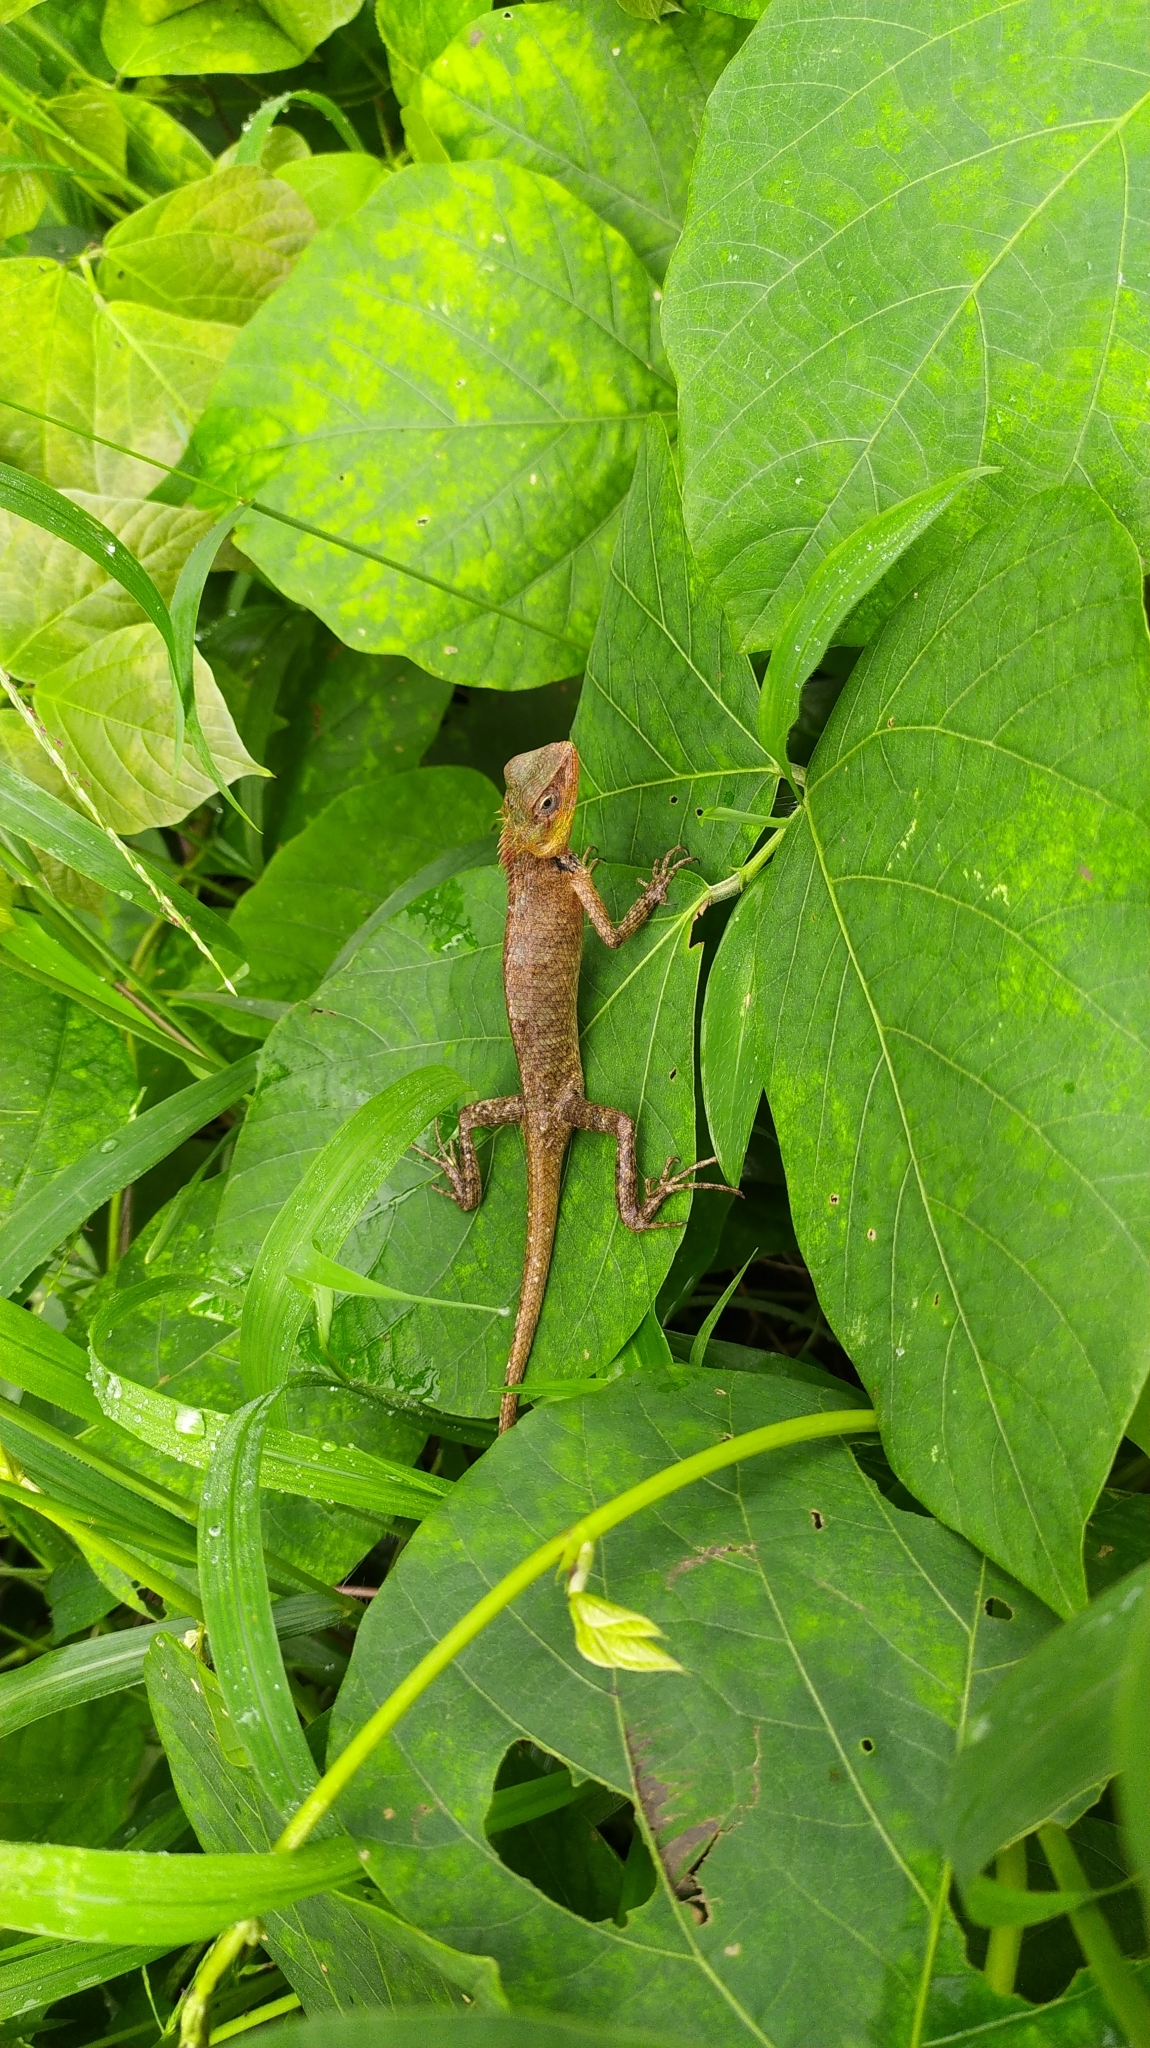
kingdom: Animalia
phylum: Chordata
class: Squamata
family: Agamidae
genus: Calotes
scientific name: Calotes versicolor
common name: Oriental garden lizard
